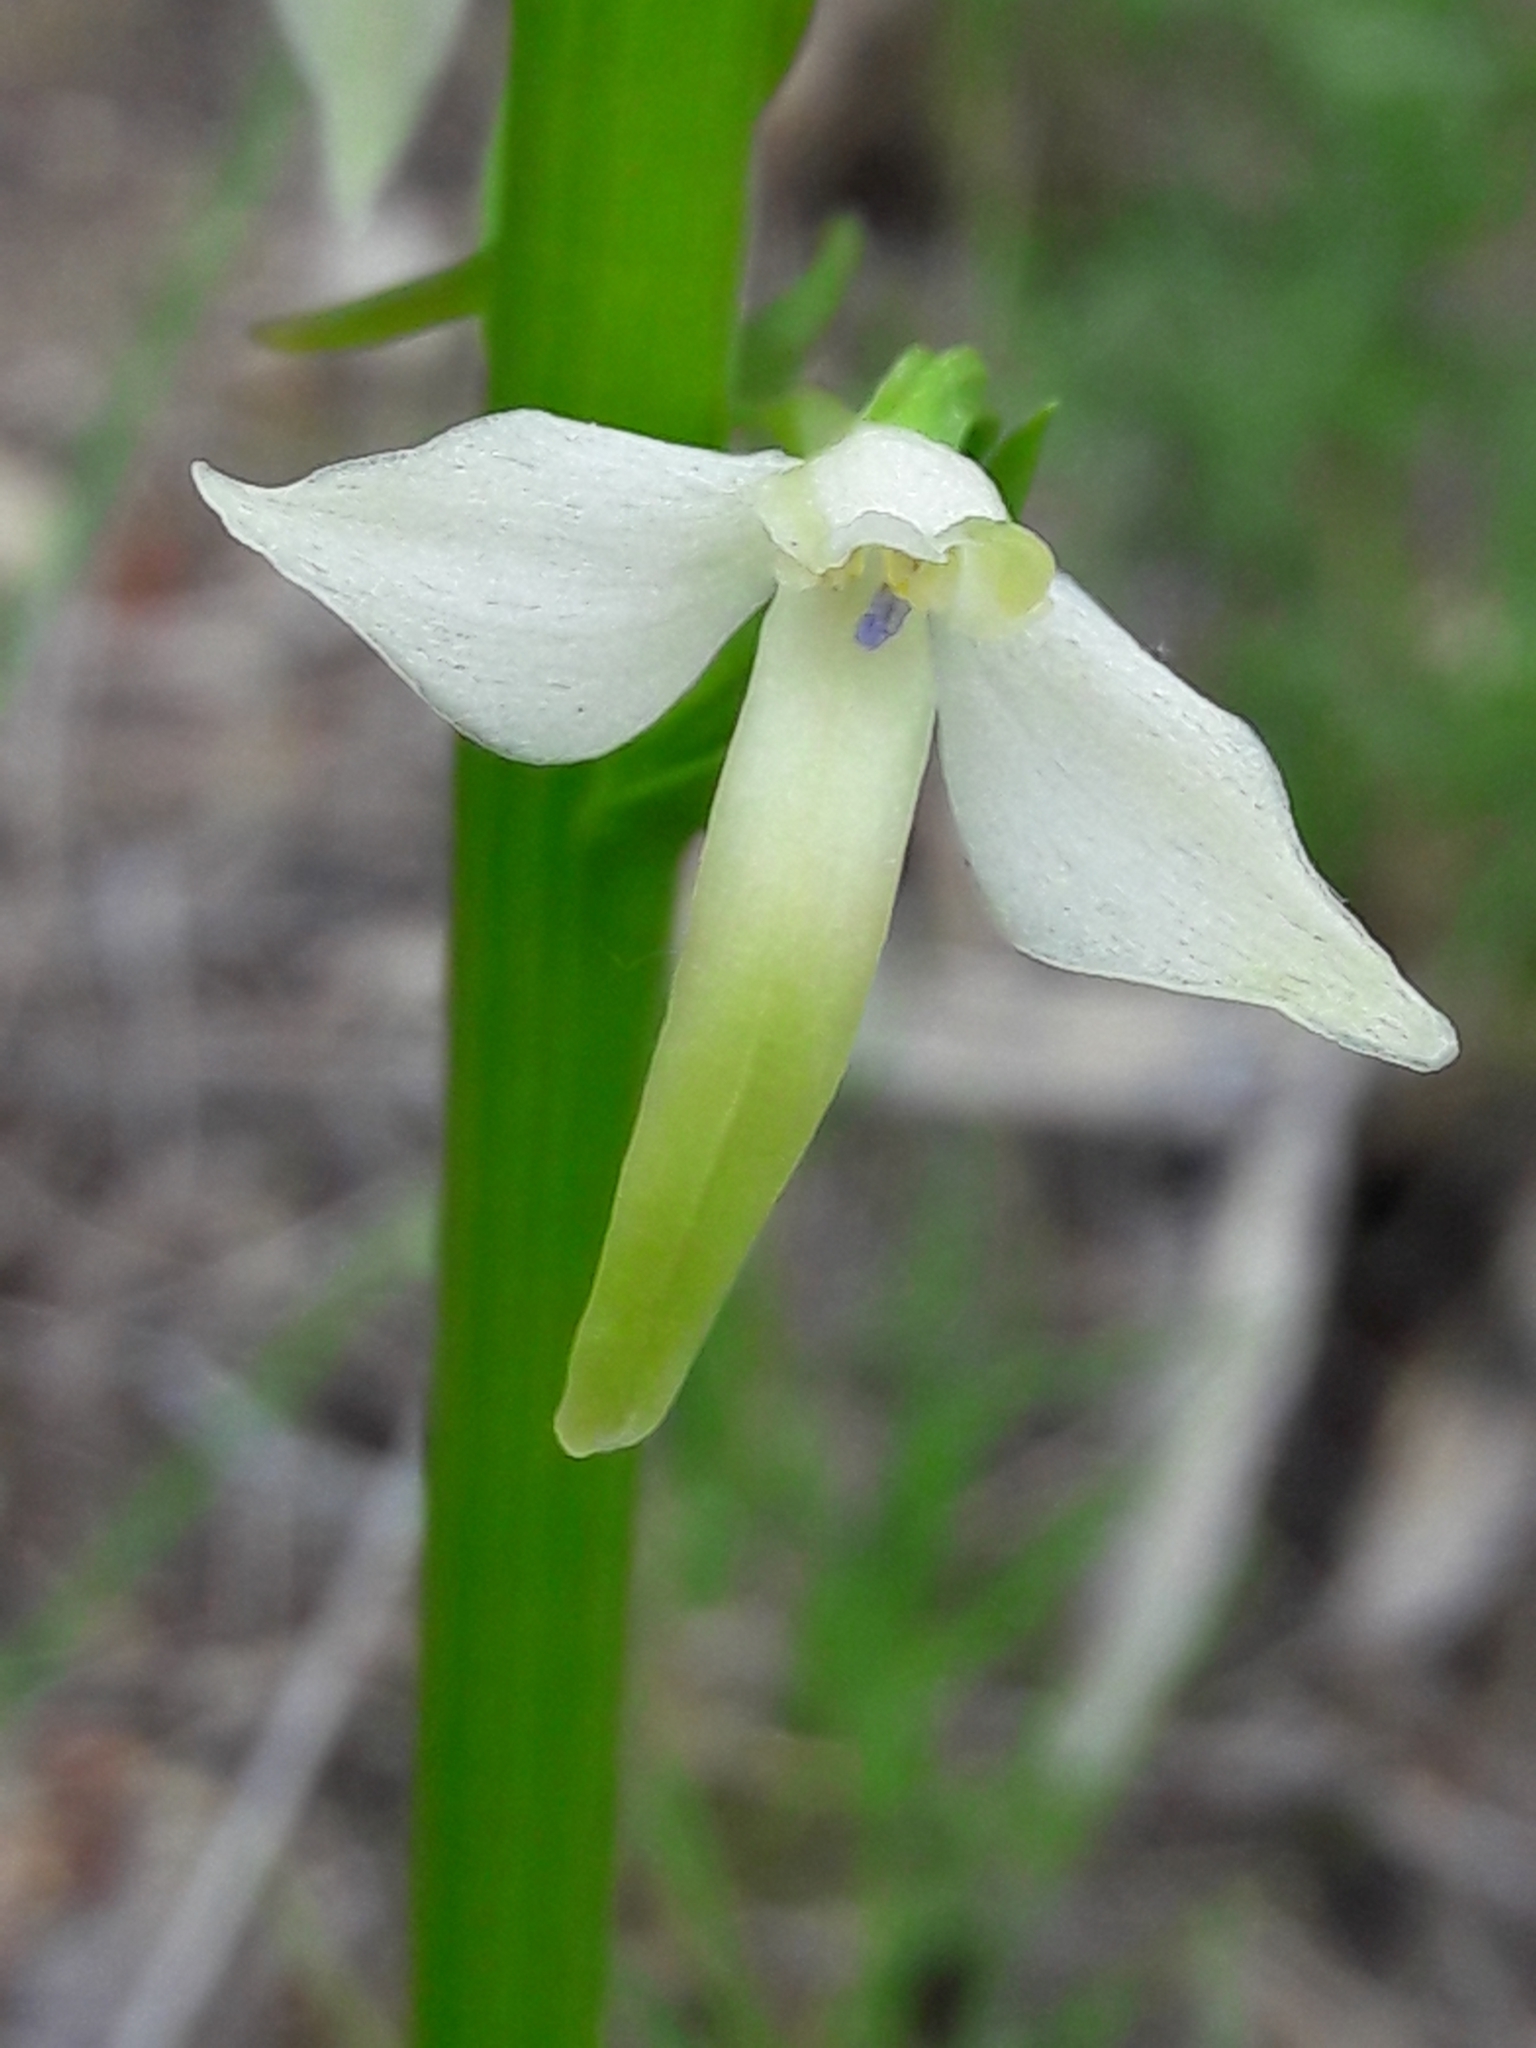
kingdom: Plantae
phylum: Tracheophyta
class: Liliopsida
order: Asparagales
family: Orchidaceae
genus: Platanthera
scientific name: Platanthera bifolia
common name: Lesser butterfly-orchid
